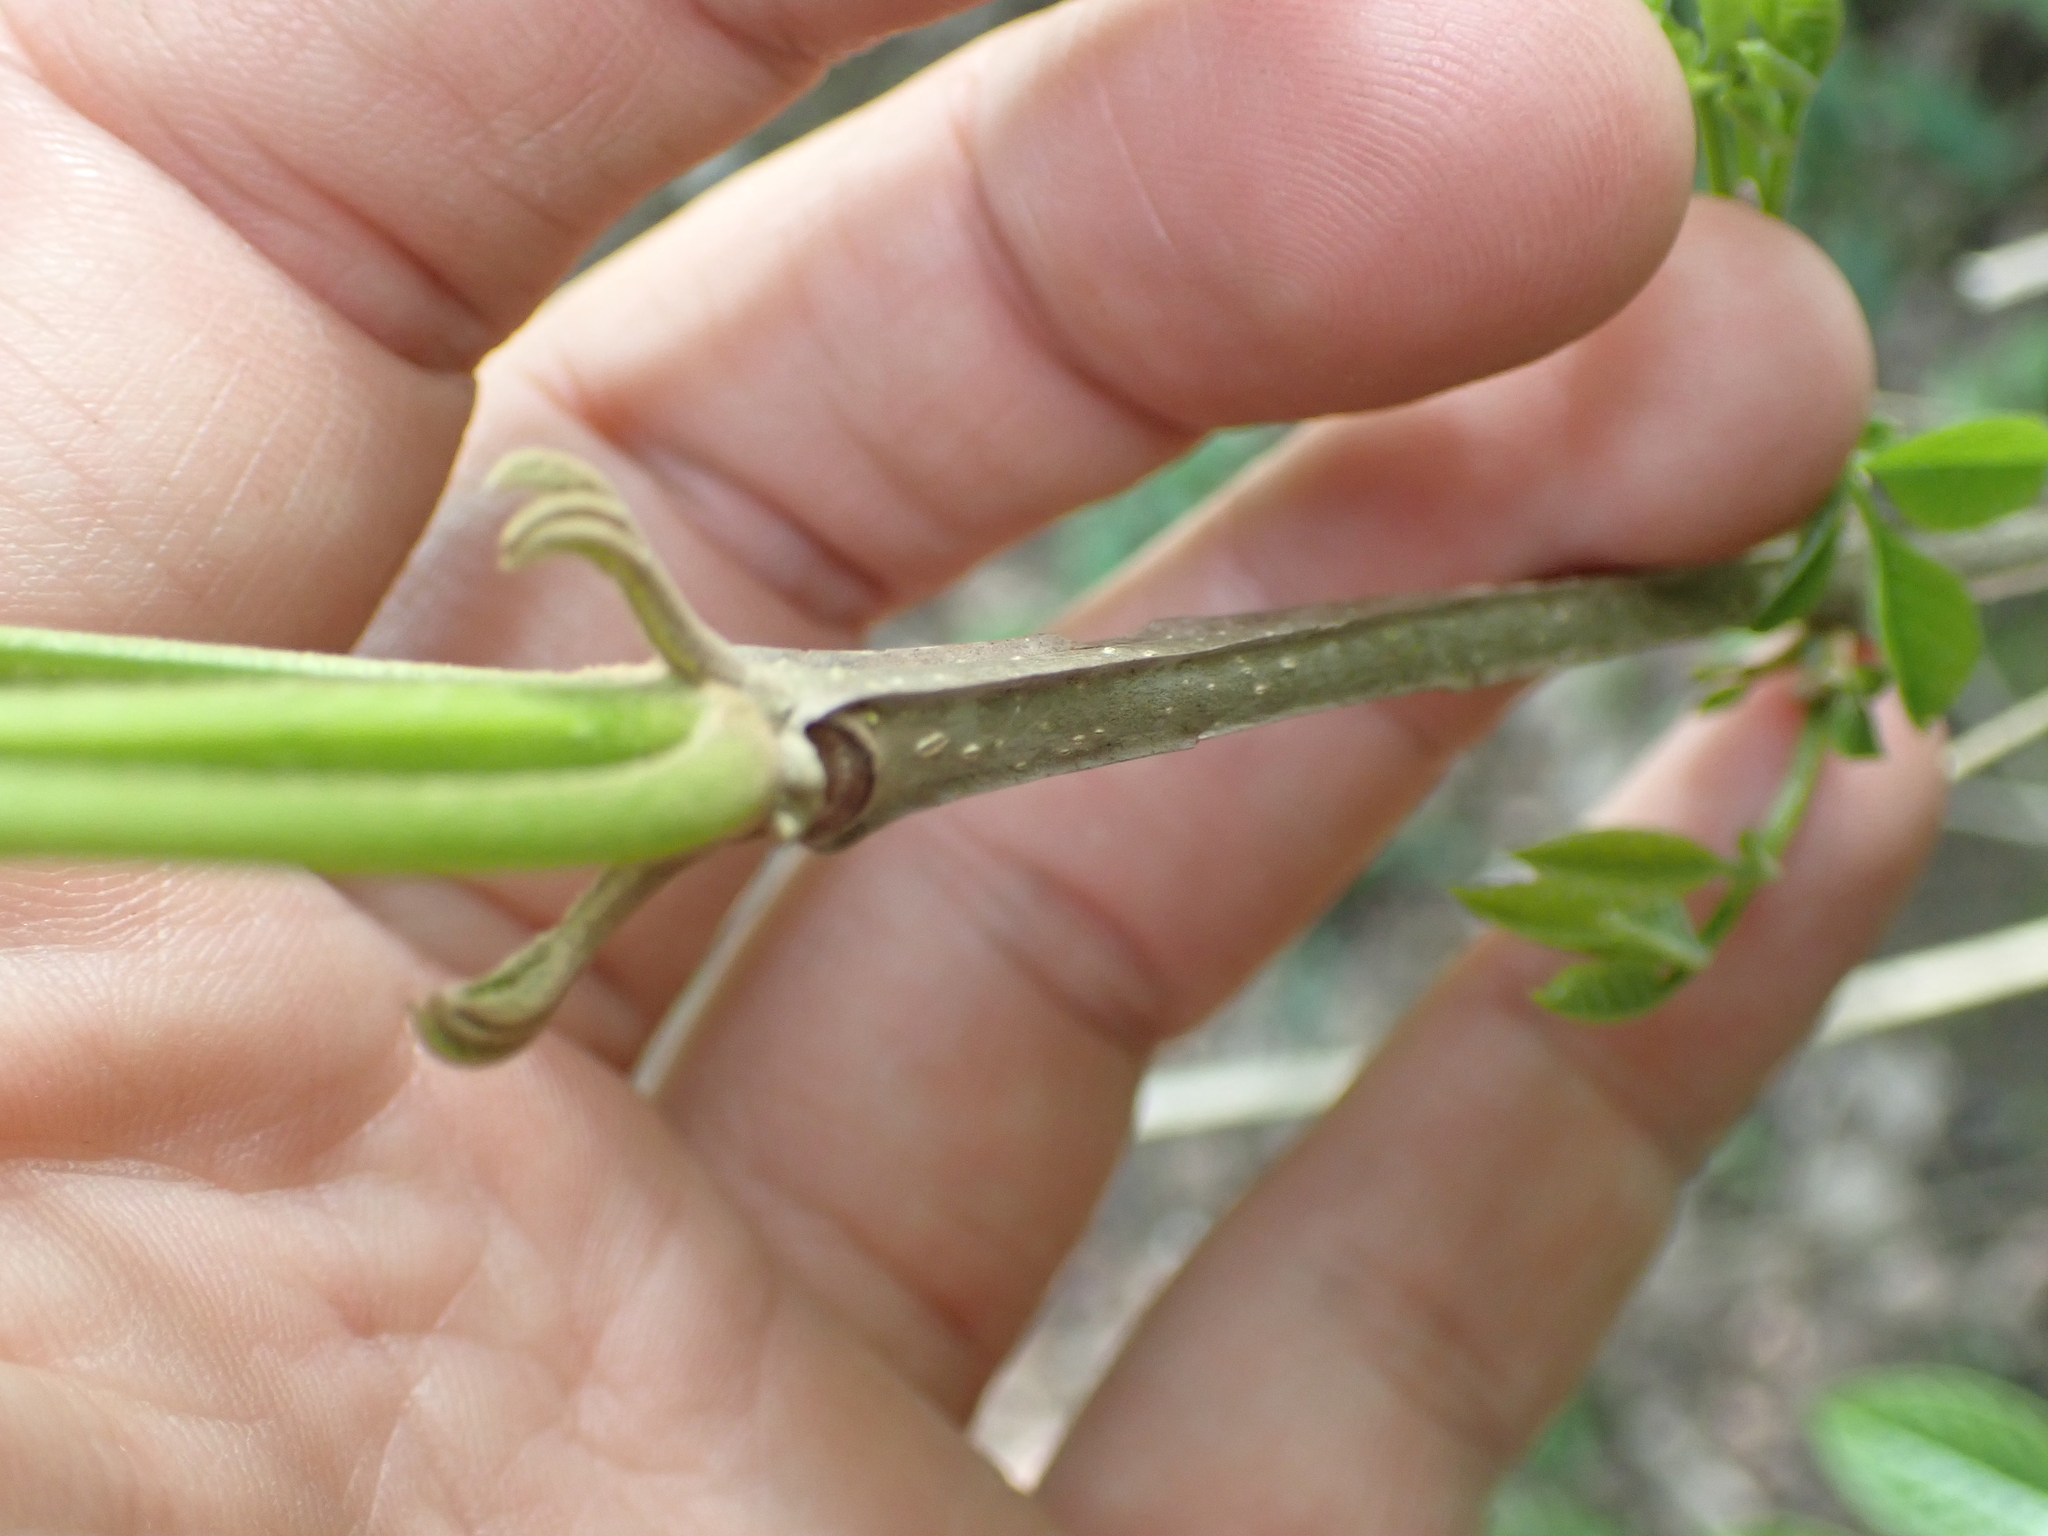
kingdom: Plantae
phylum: Tracheophyta
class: Magnoliopsida
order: Lamiales
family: Oleaceae
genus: Fraxinus
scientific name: Fraxinus quadrangulata
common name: Blue ash
